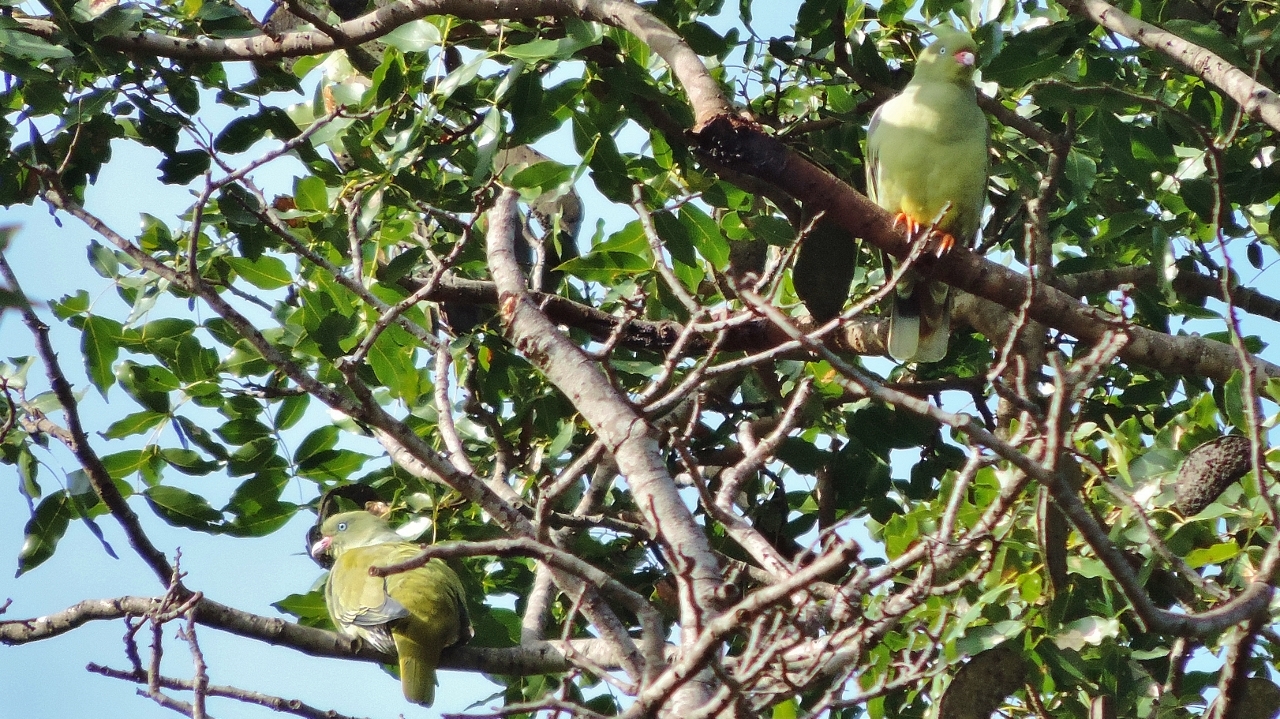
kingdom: Animalia
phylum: Chordata
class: Aves
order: Columbiformes
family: Columbidae
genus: Treron
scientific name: Treron calvus
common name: African green pigeon
